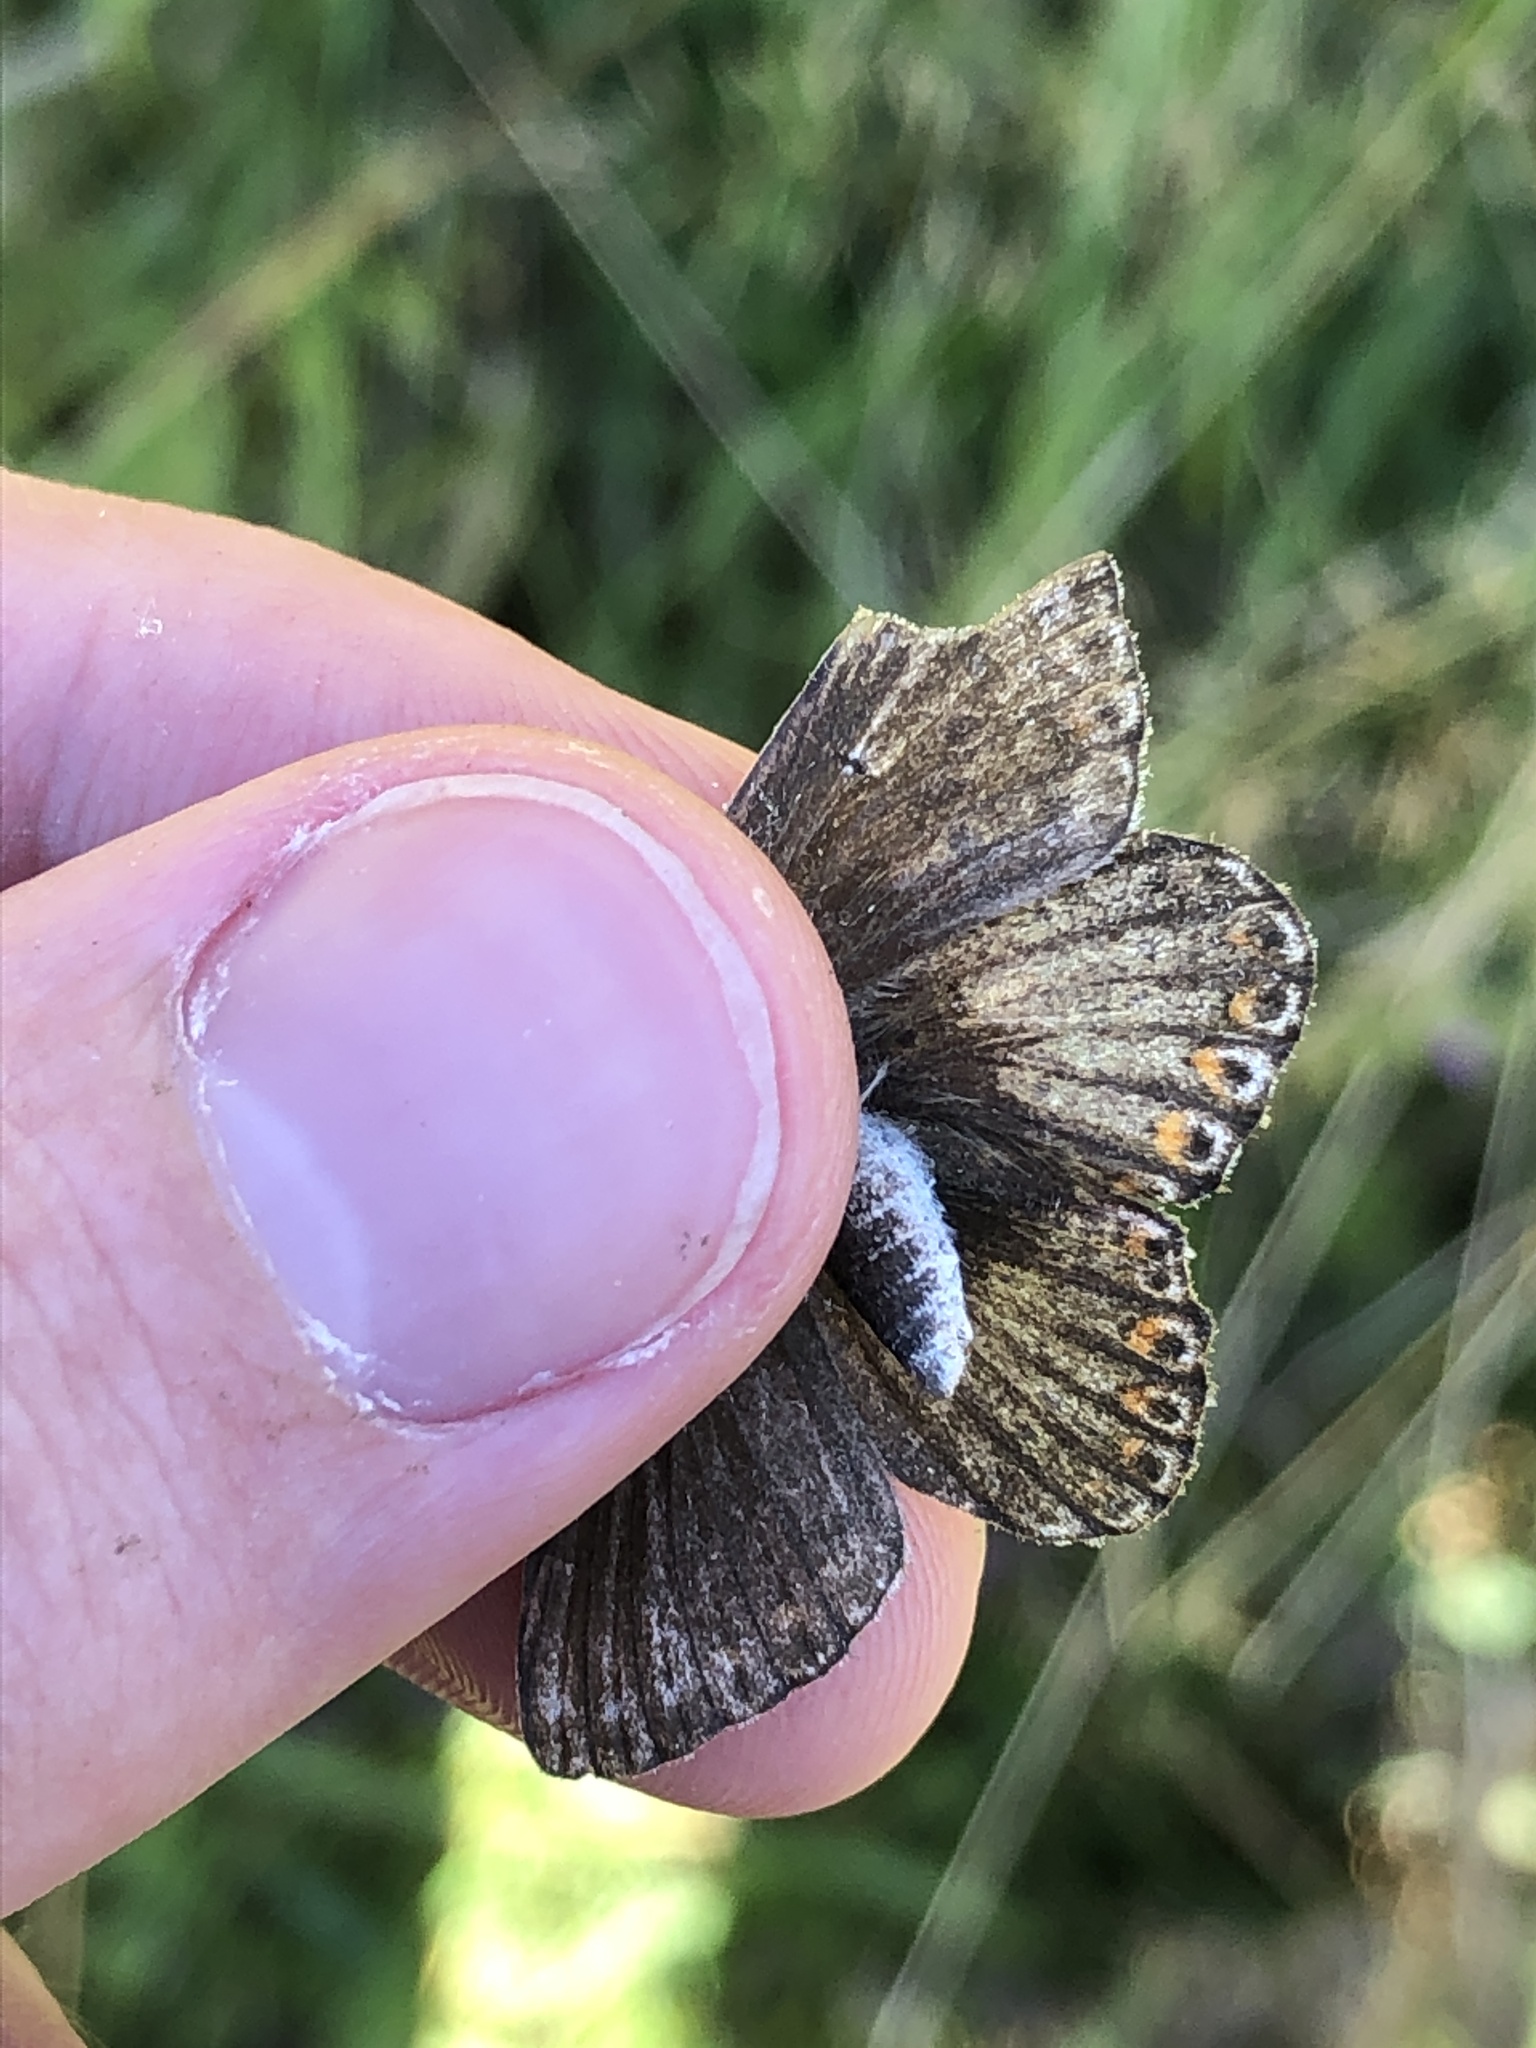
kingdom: Animalia
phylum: Arthropoda
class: Insecta
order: Lepidoptera
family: Lycaenidae
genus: Lysandra
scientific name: Lysandra coridon
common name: Chalkhill blue
